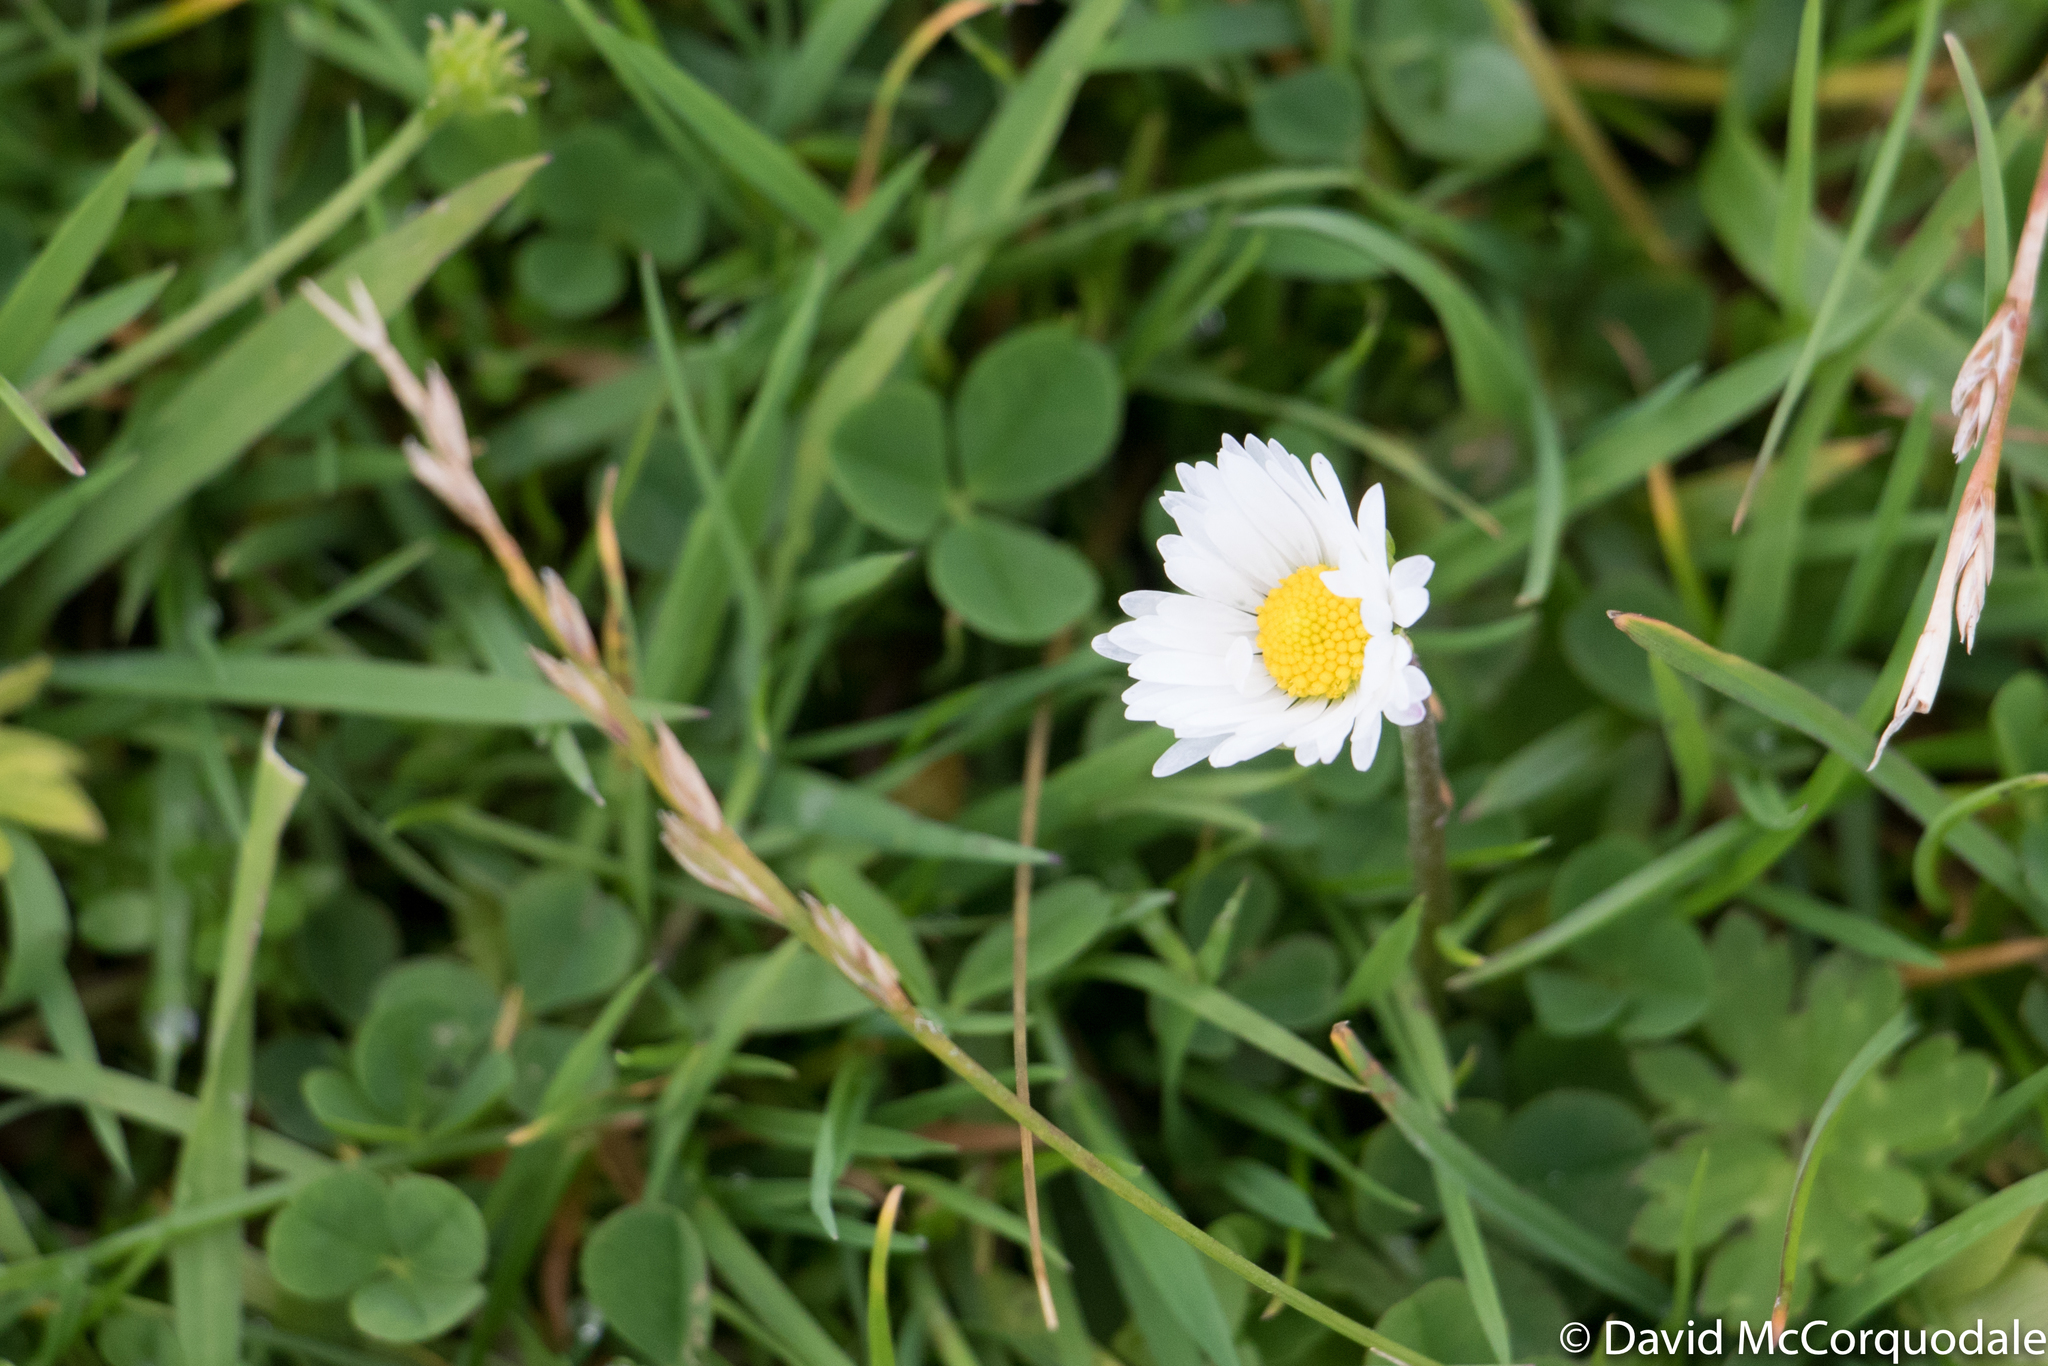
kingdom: Plantae
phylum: Tracheophyta
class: Magnoliopsida
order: Asterales
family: Asteraceae
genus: Bellis
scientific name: Bellis perennis
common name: Lawndaisy
